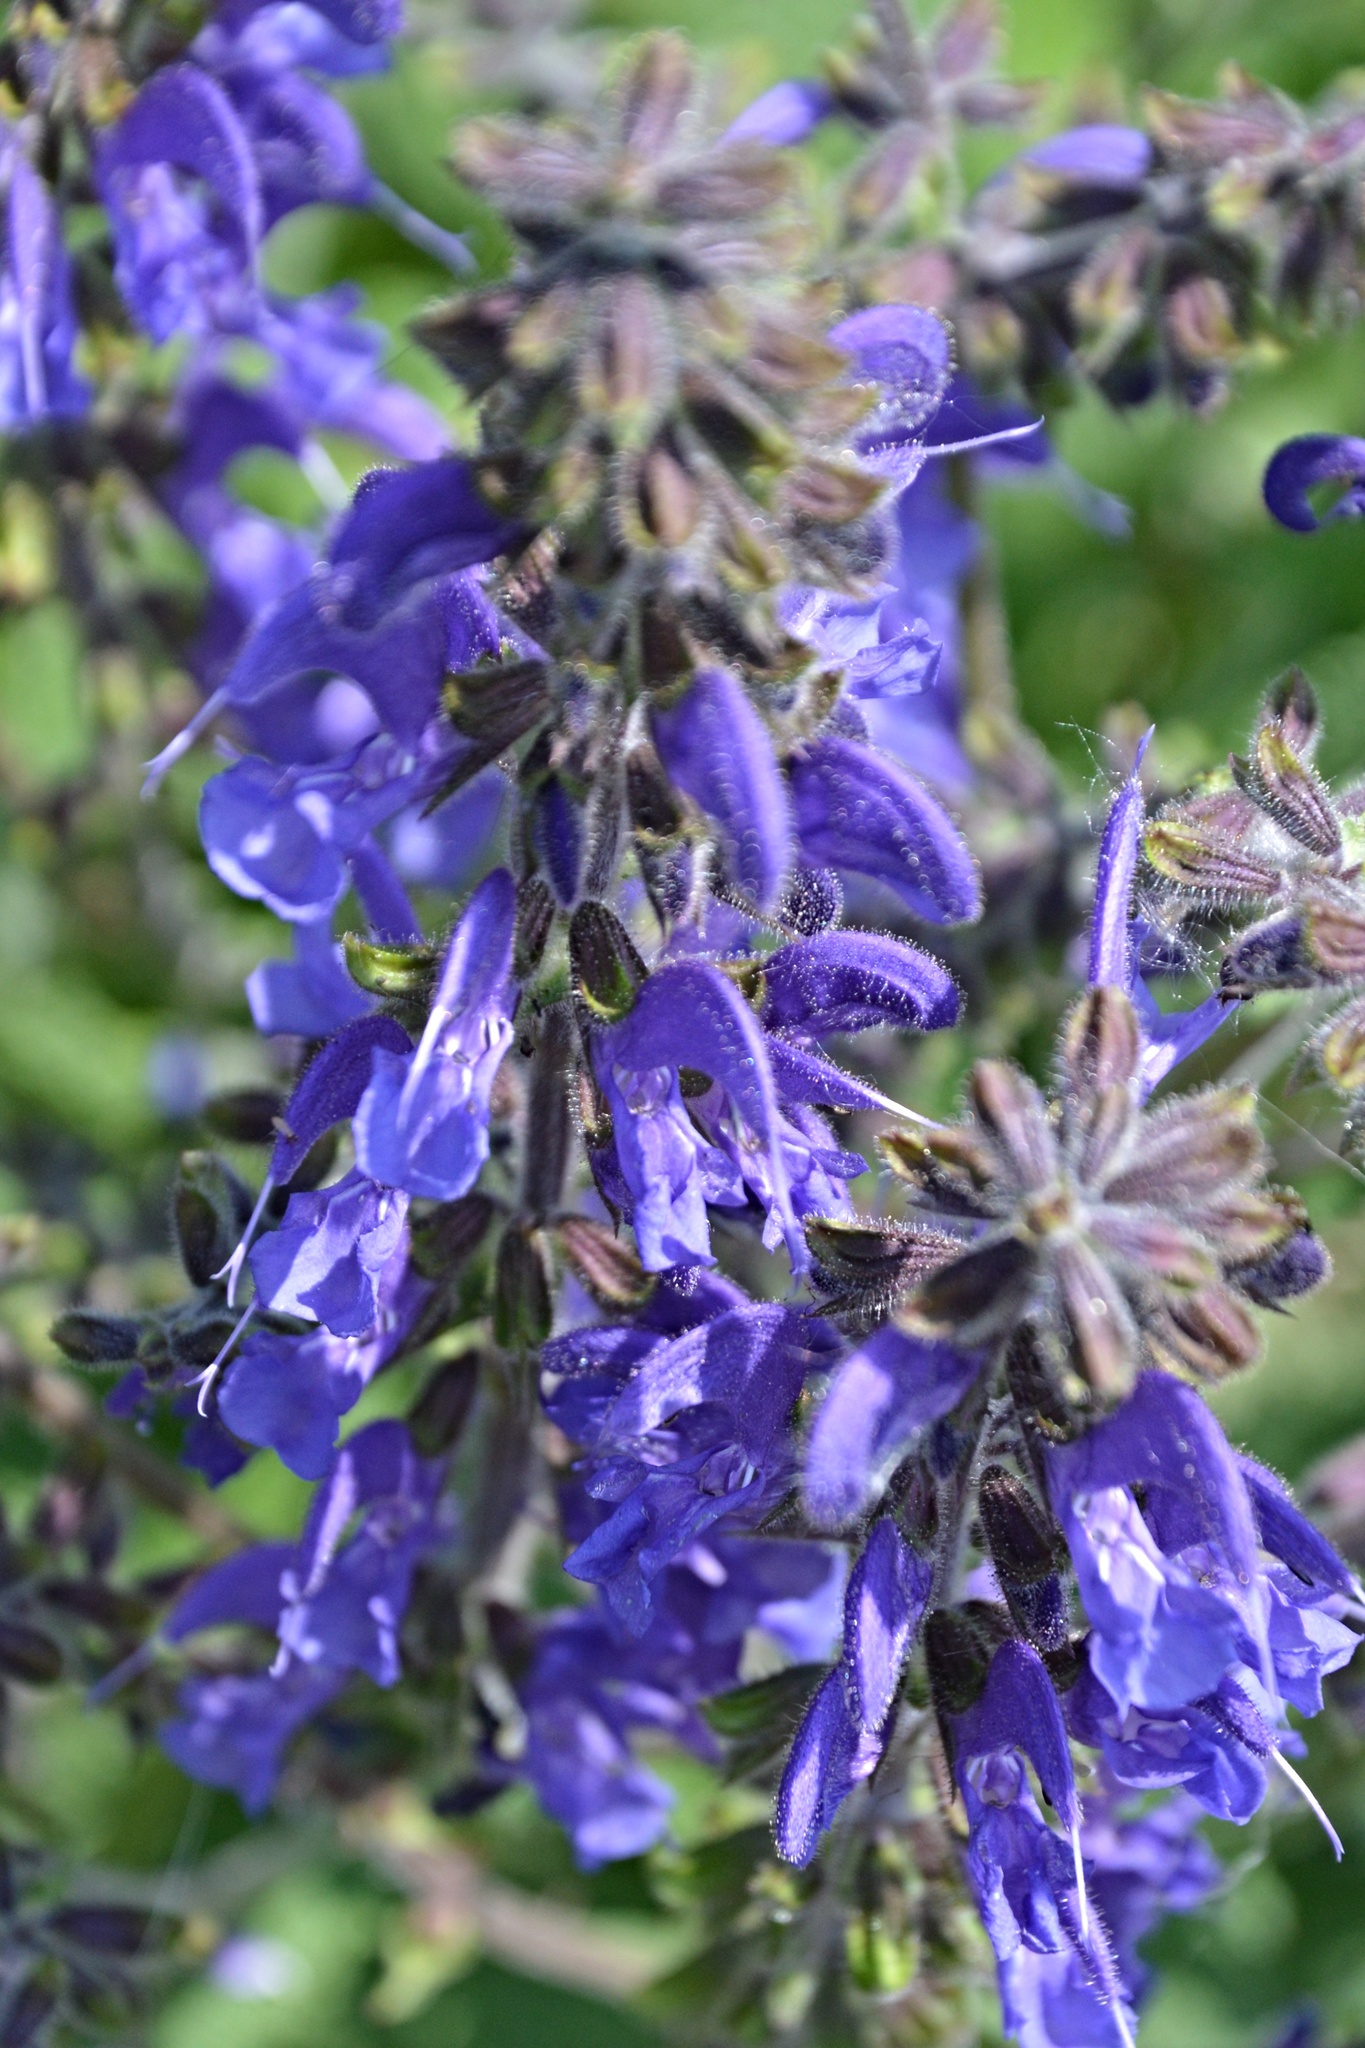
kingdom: Plantae
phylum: Tracheophyta
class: Magnoliopsida
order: Lamiales
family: Lamiaceae
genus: Salvia
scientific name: Salvia pratensis
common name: Meadow sage
